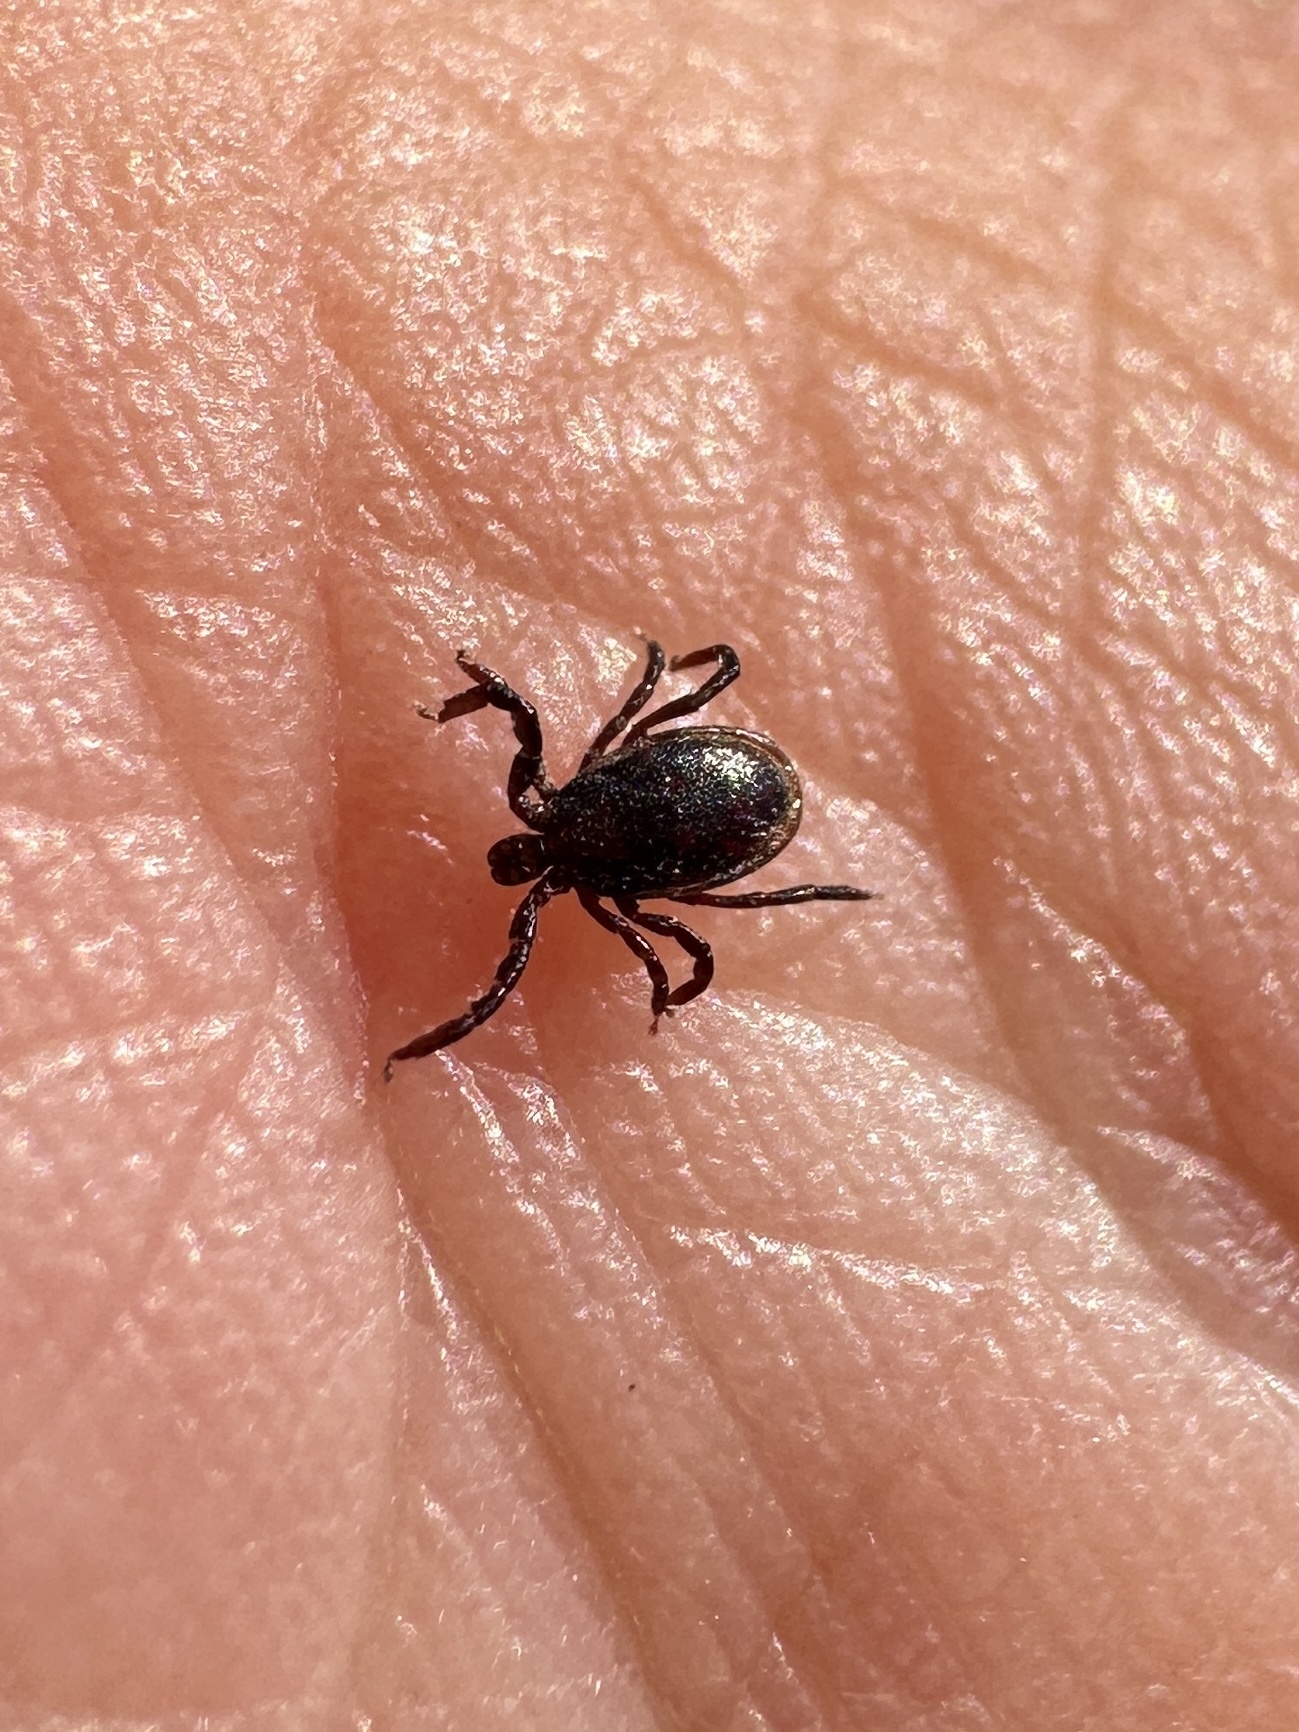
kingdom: Animalia
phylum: Arthropoda
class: Arachnida
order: Ixodida
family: Ixodidae
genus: Ixodes
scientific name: Ixodes pacificus
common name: California black-legged tick
